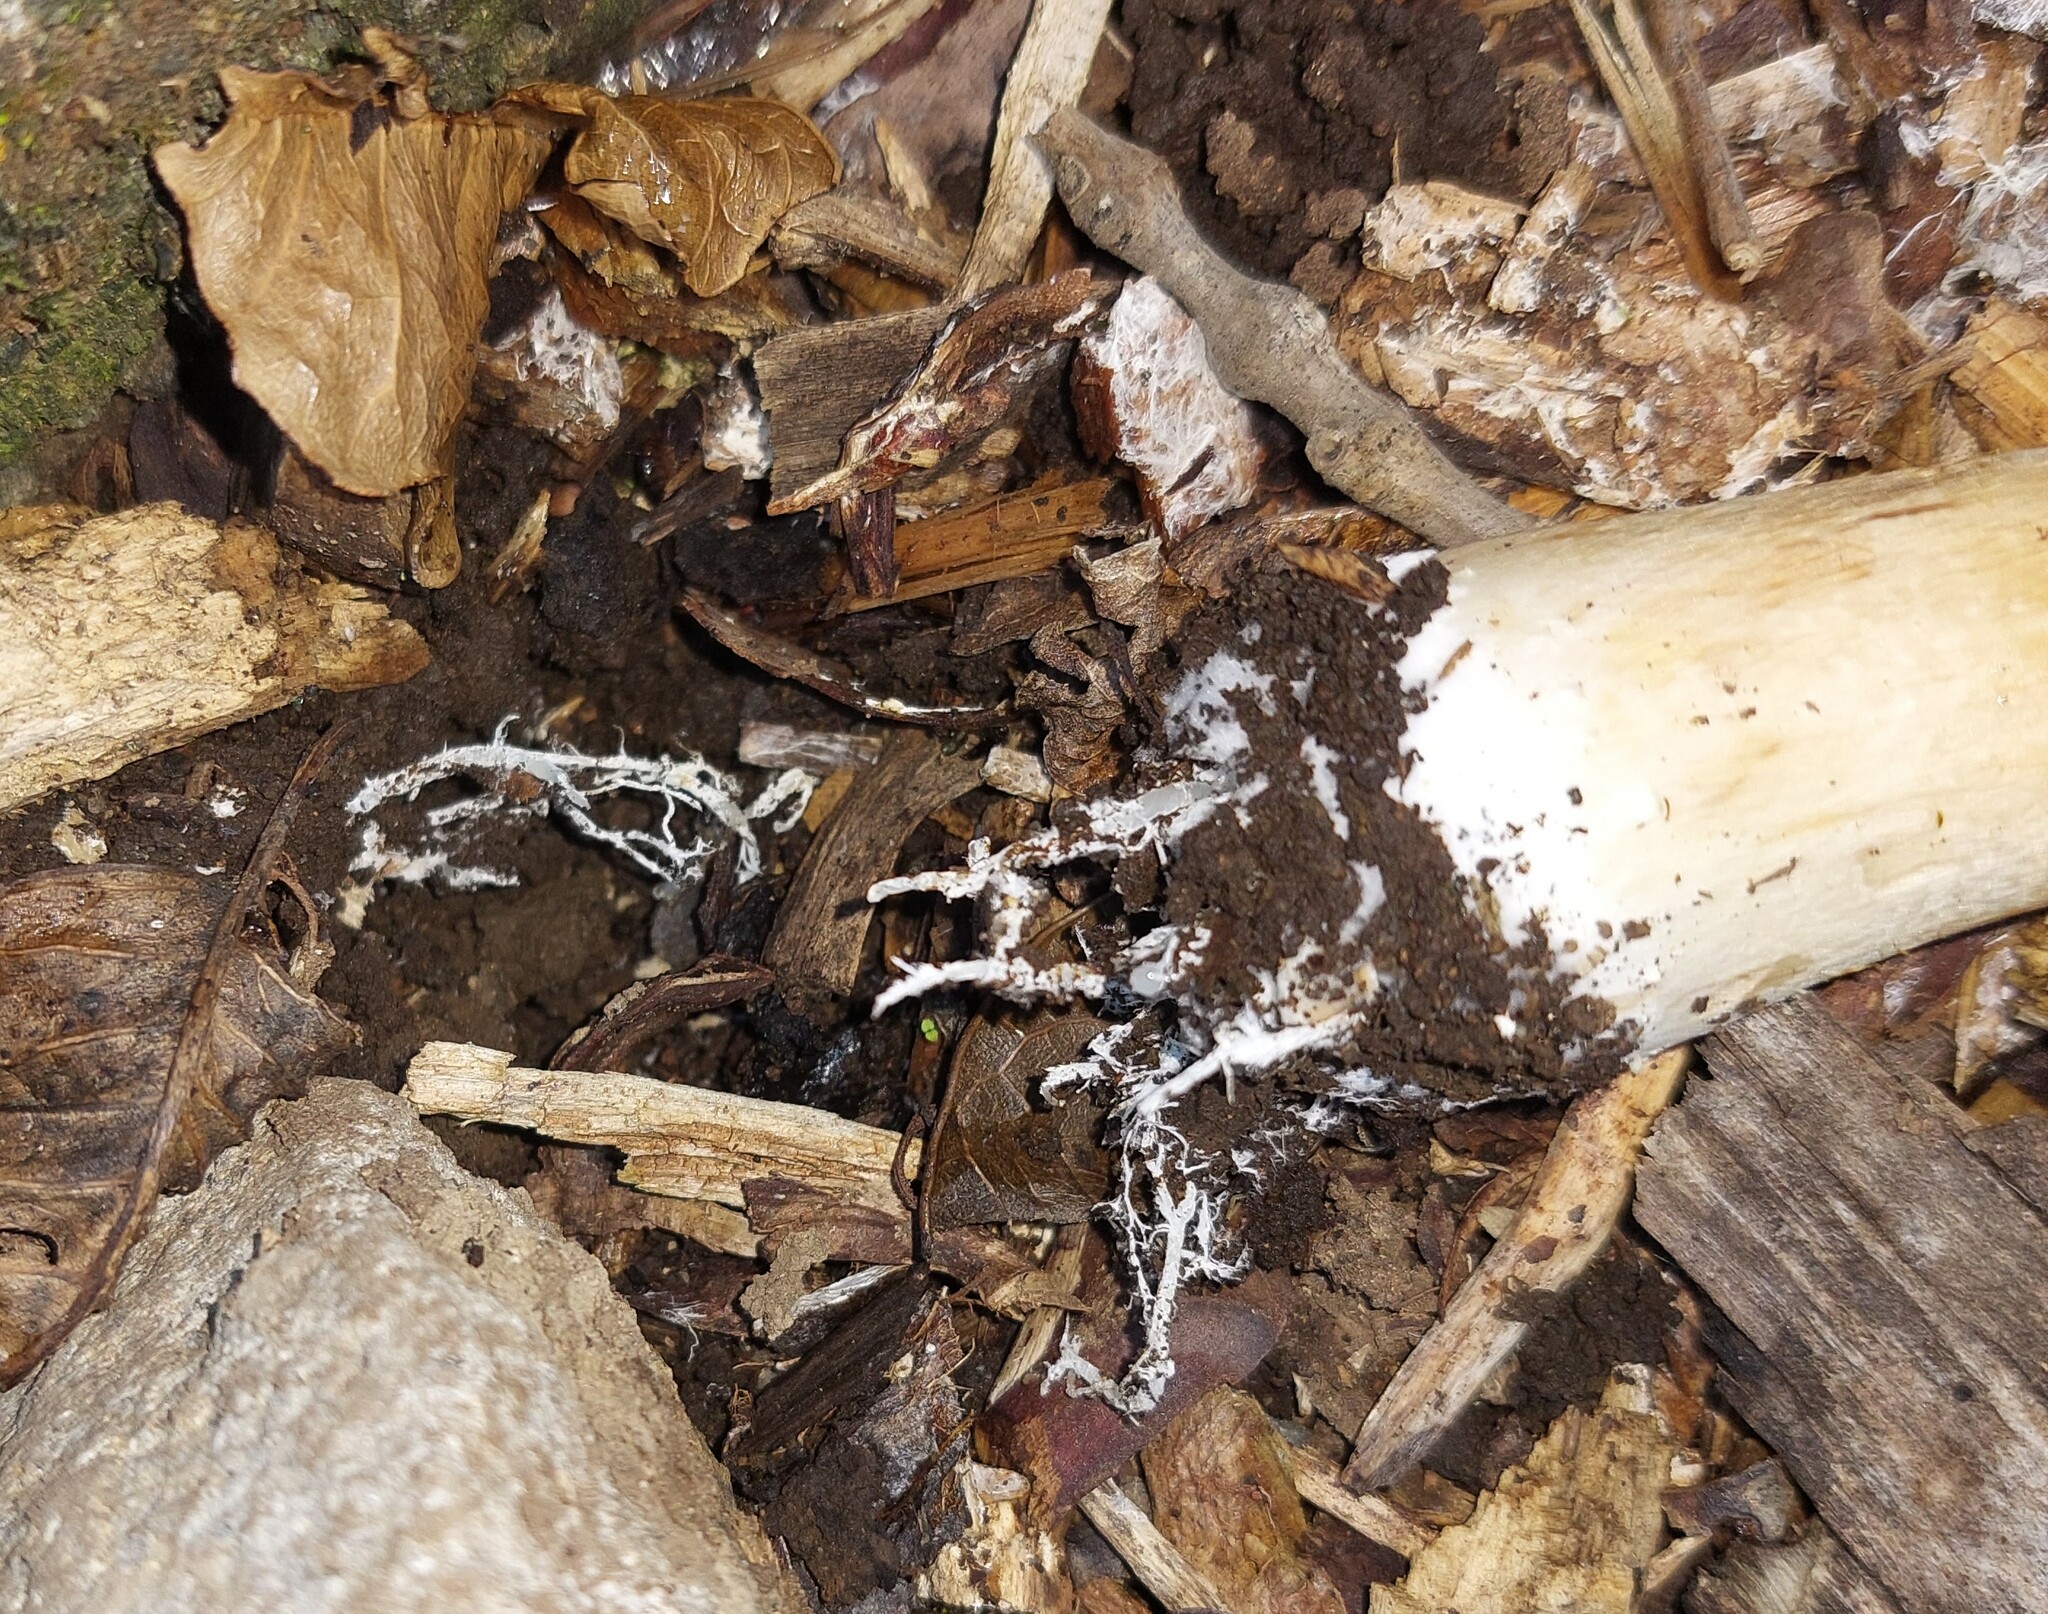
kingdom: Fungi
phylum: Basidiomycota
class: Agaricomycetes
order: Agaricales
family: Strophariaceae
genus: Stropharia
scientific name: Stropharia rugosoannulata
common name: Wine roundhead
